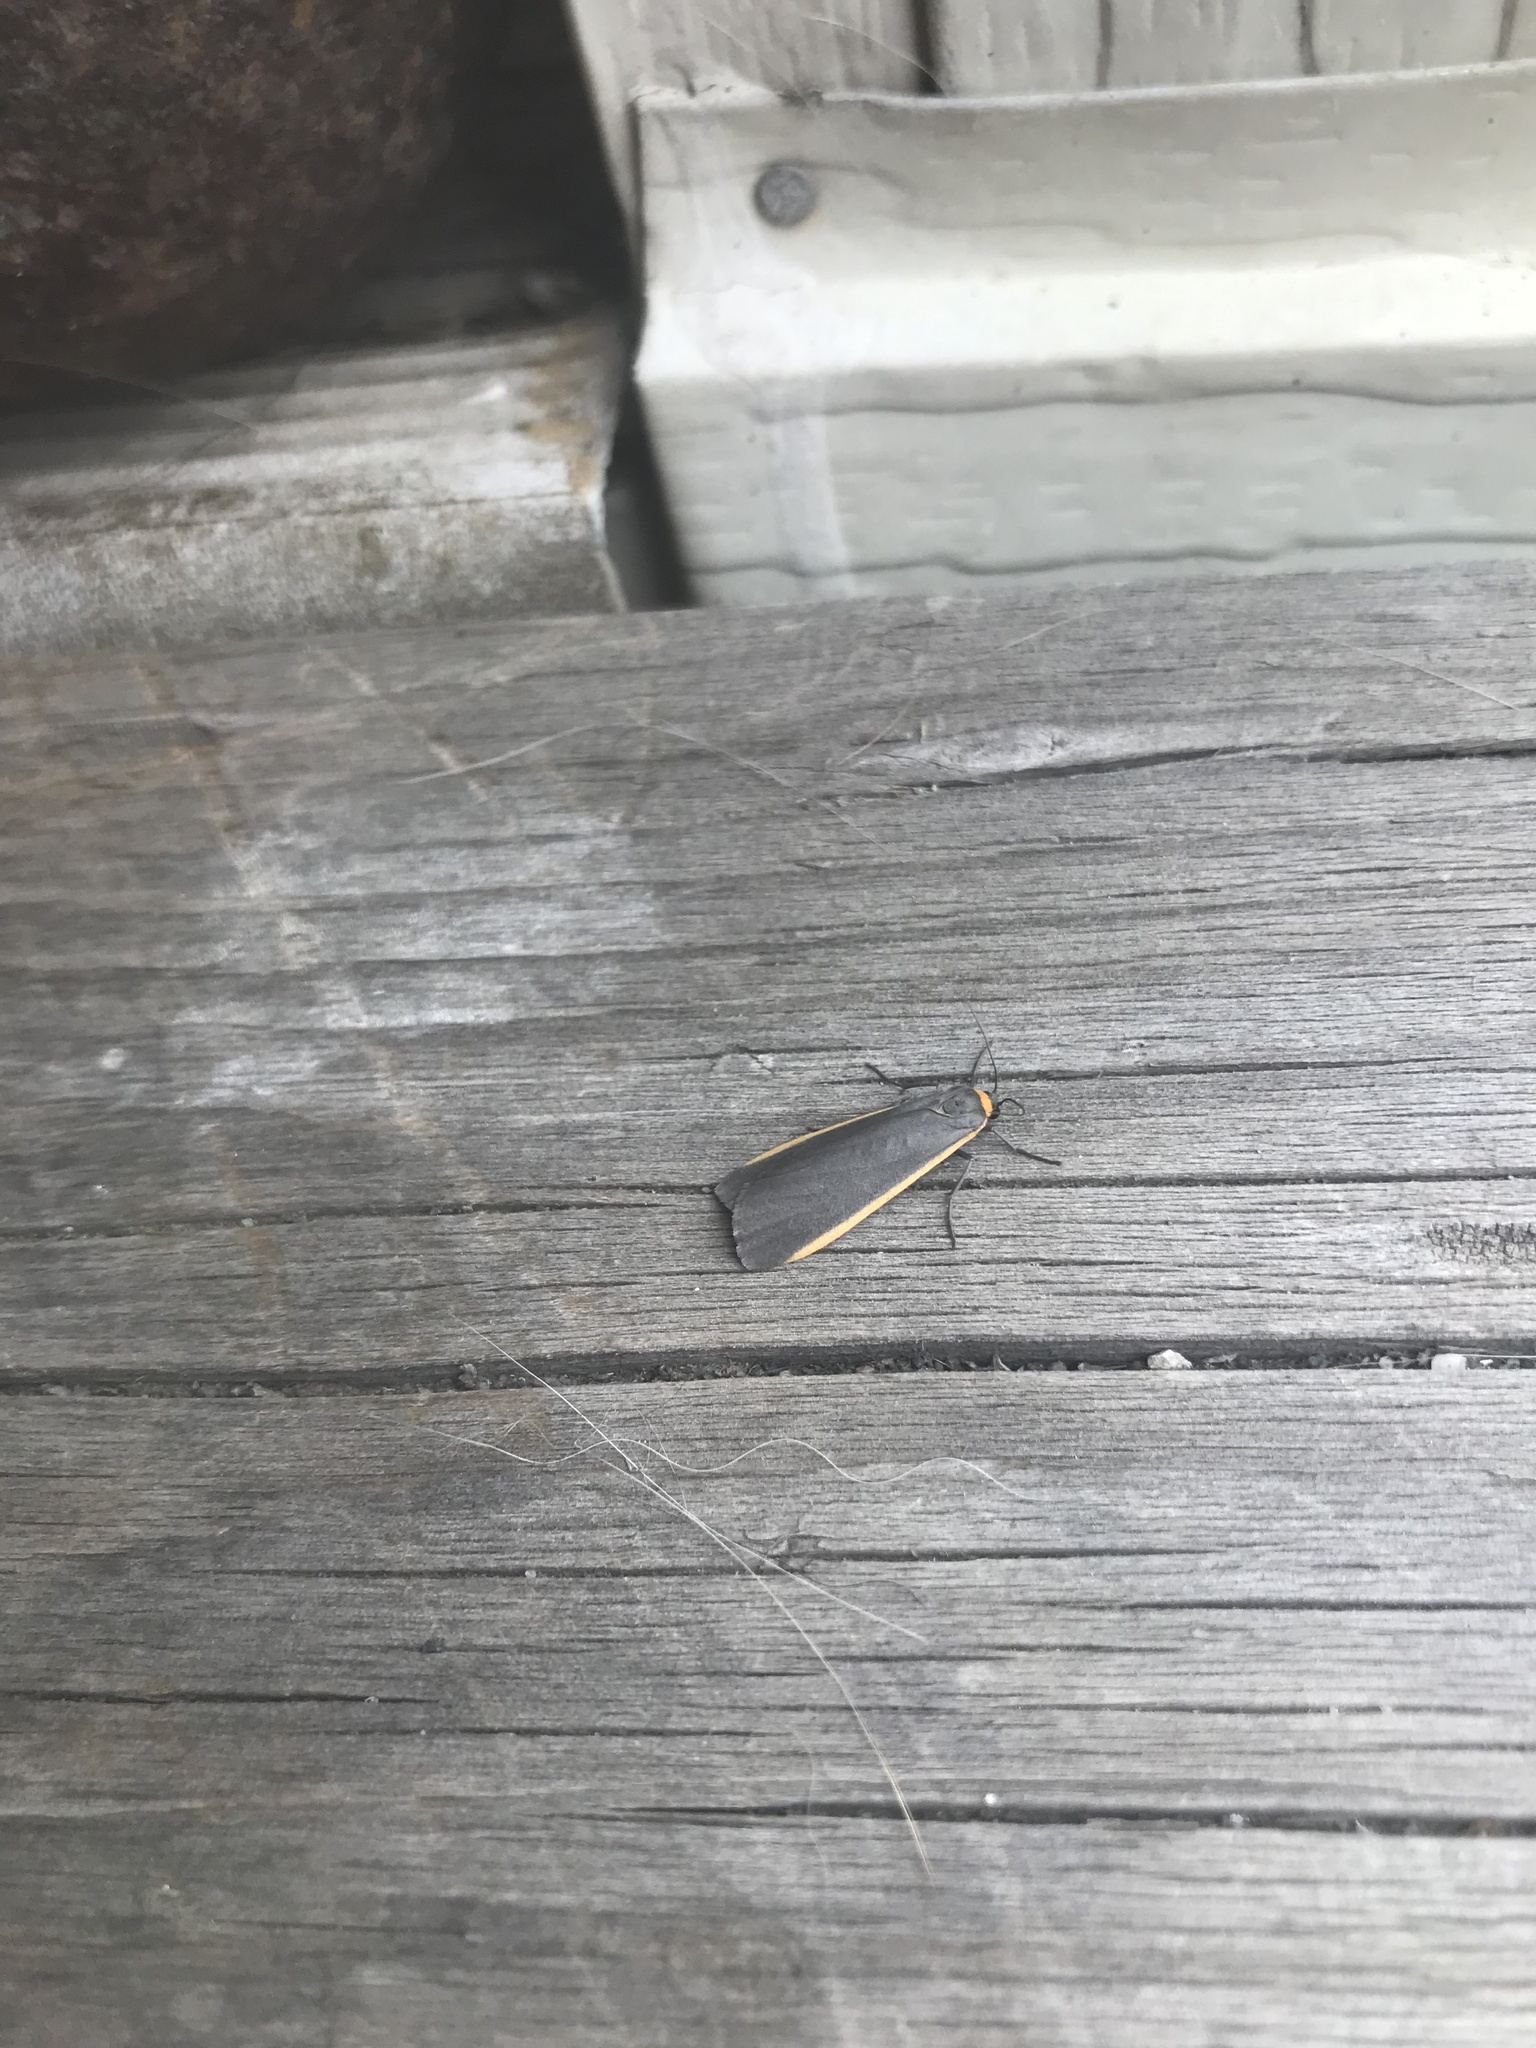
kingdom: Animalia
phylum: Arthropoda
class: Insecta
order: Lepidoptera
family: Erebidae
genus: Manulea
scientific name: Manulea bicolor
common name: Bicolored moth
